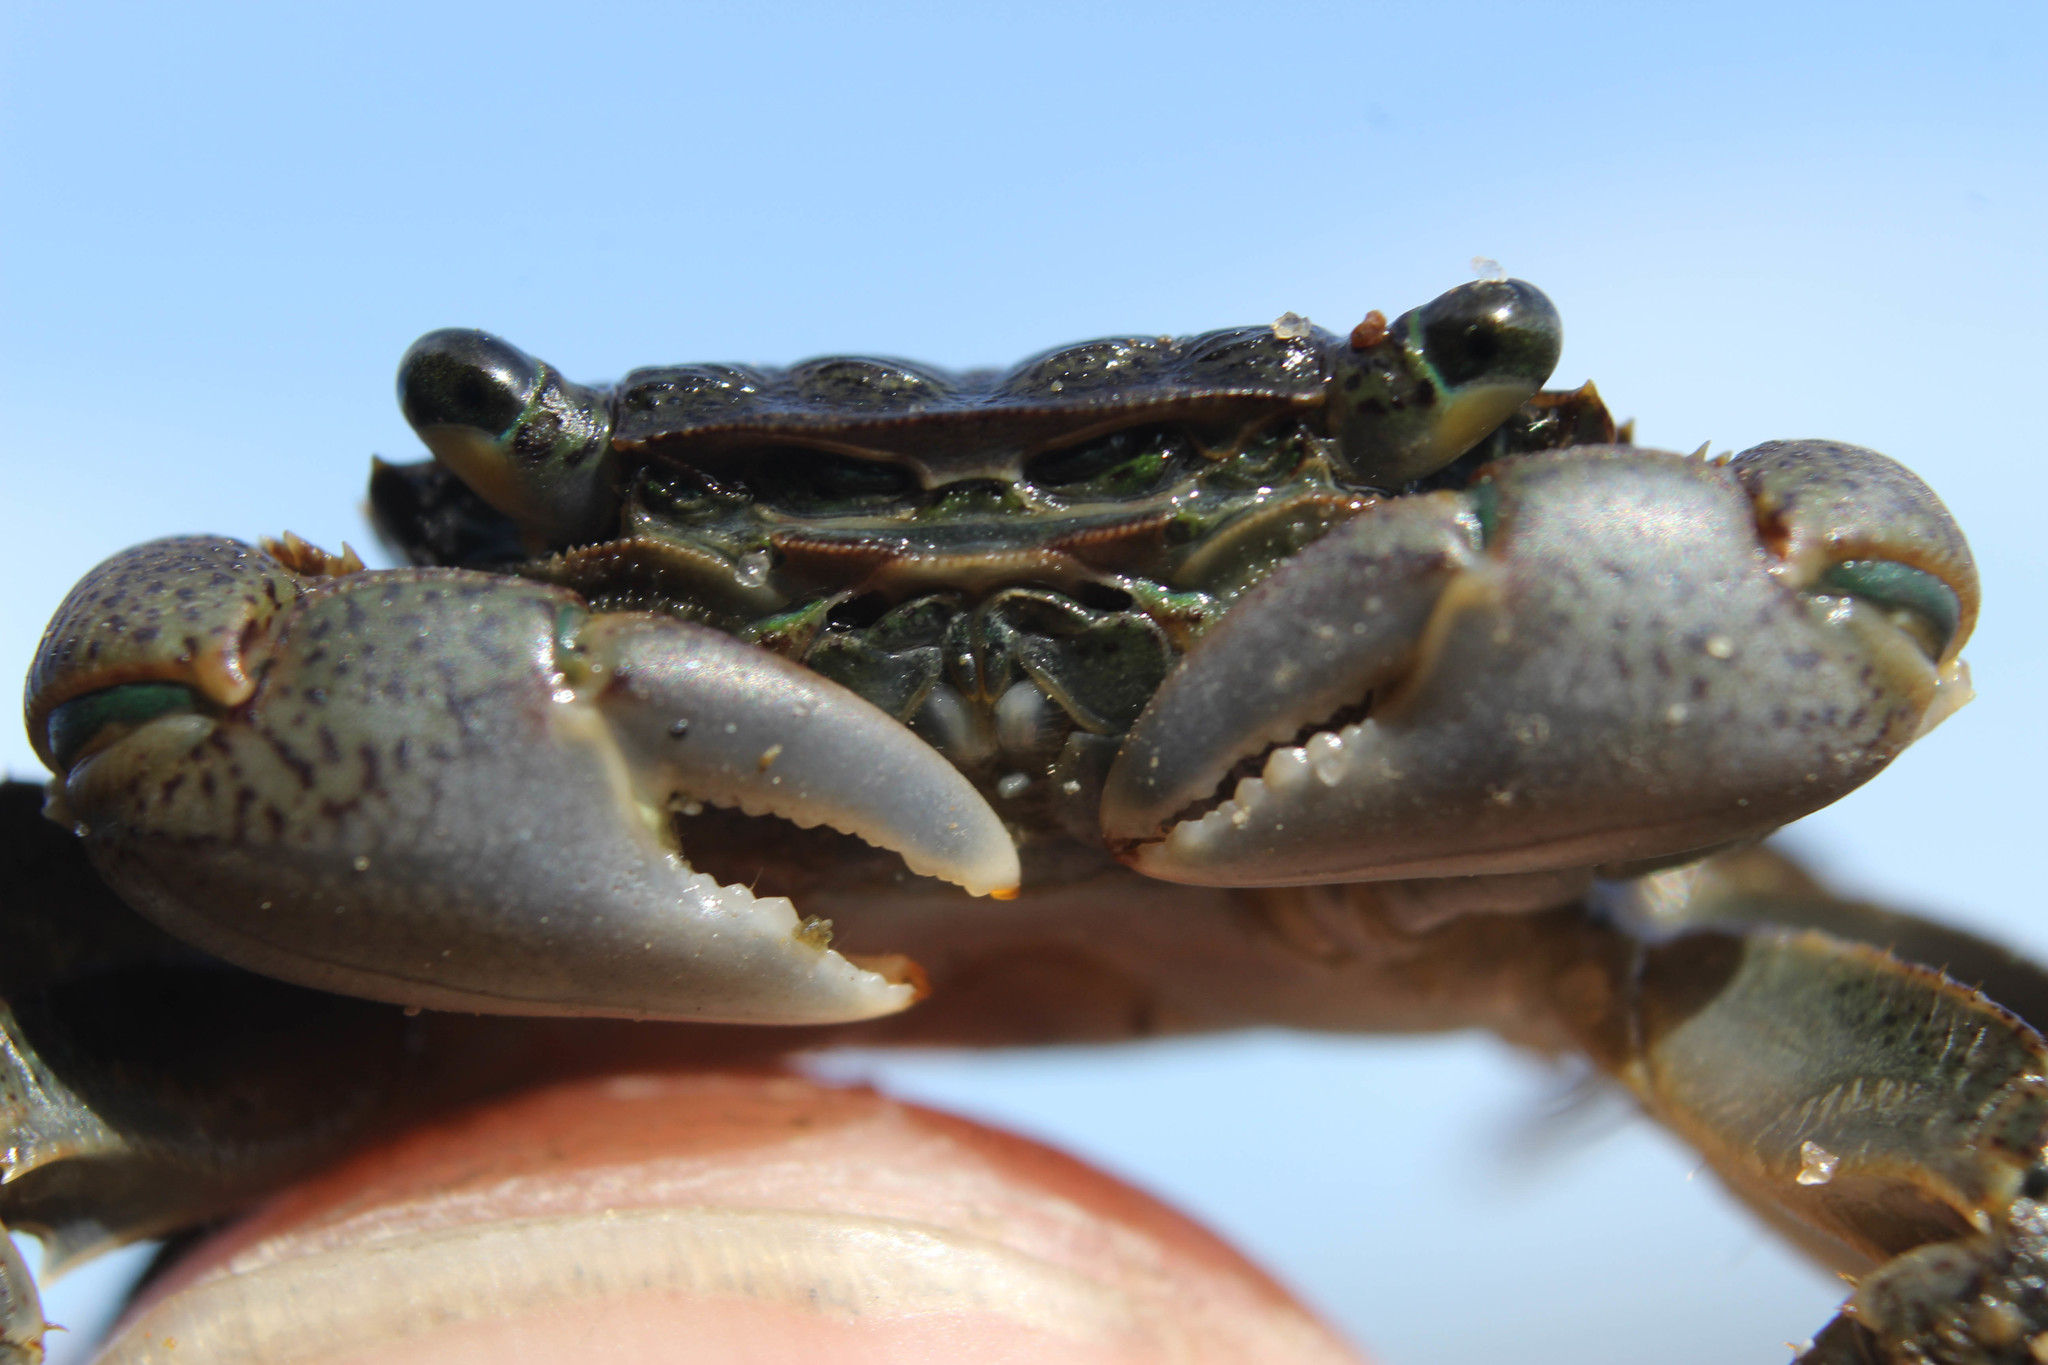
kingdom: Animalia
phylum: Arthropoda
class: Malacostraca
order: Decapoda
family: Grapsidae
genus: Pachygrapsus
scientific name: Pachygrapsus crassipes
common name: Striped shore crab
